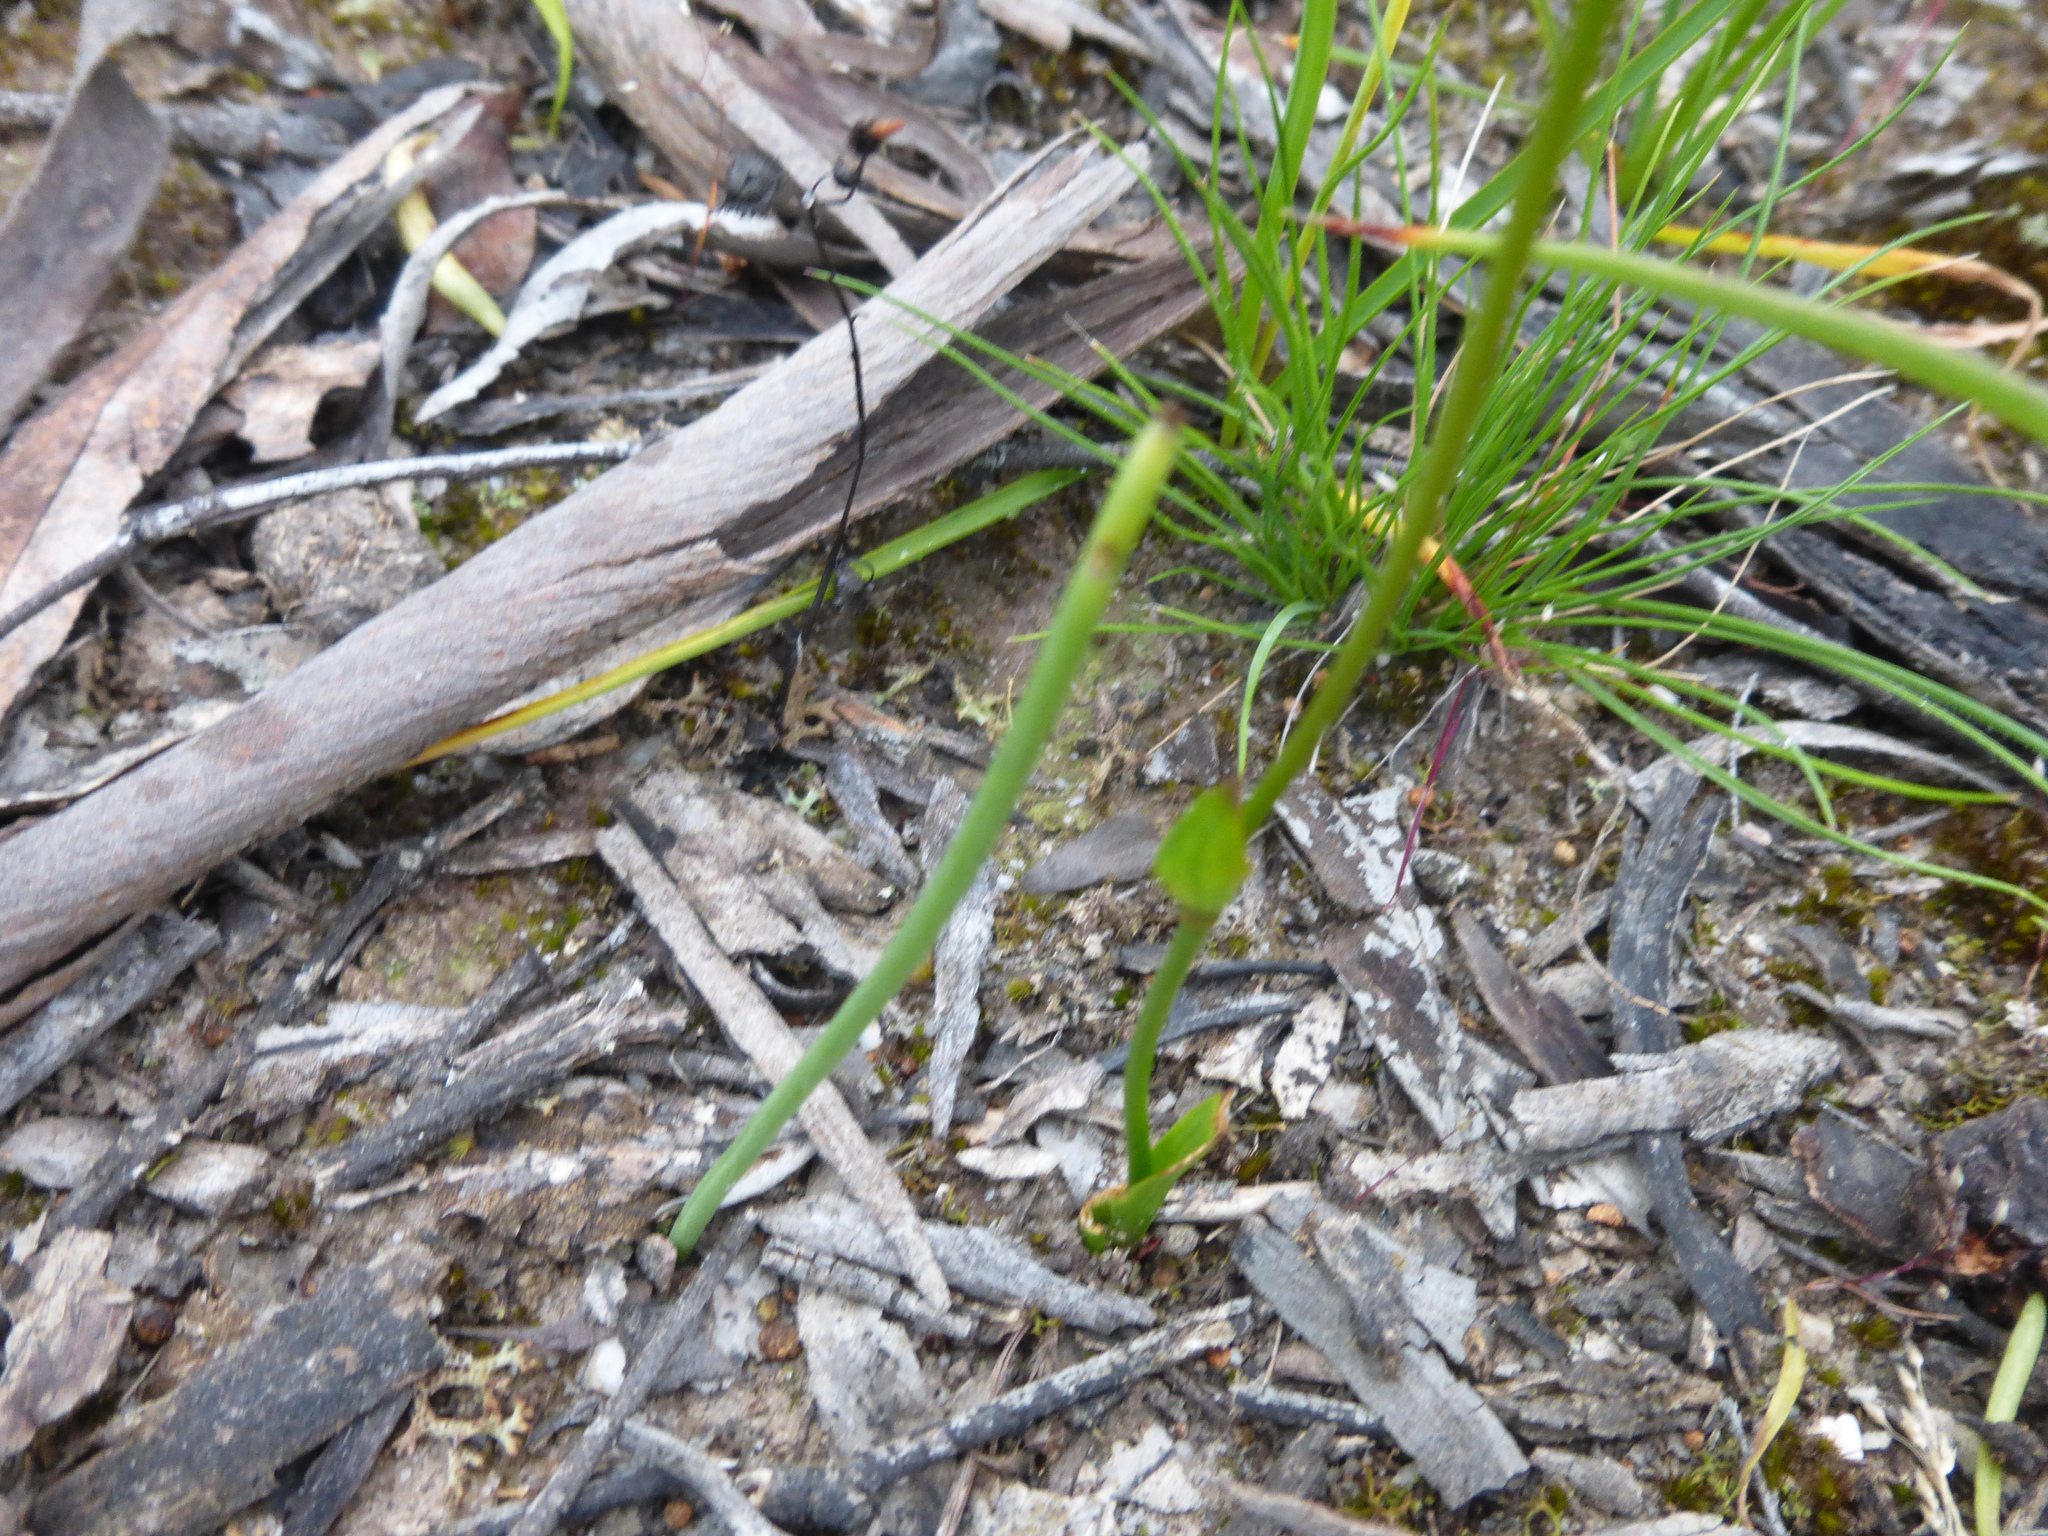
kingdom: Plantae
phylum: Tracheophyta
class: Liliopsida
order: Liliales
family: Colchicaceae
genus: Burchardia
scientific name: Burchardia umbellata
